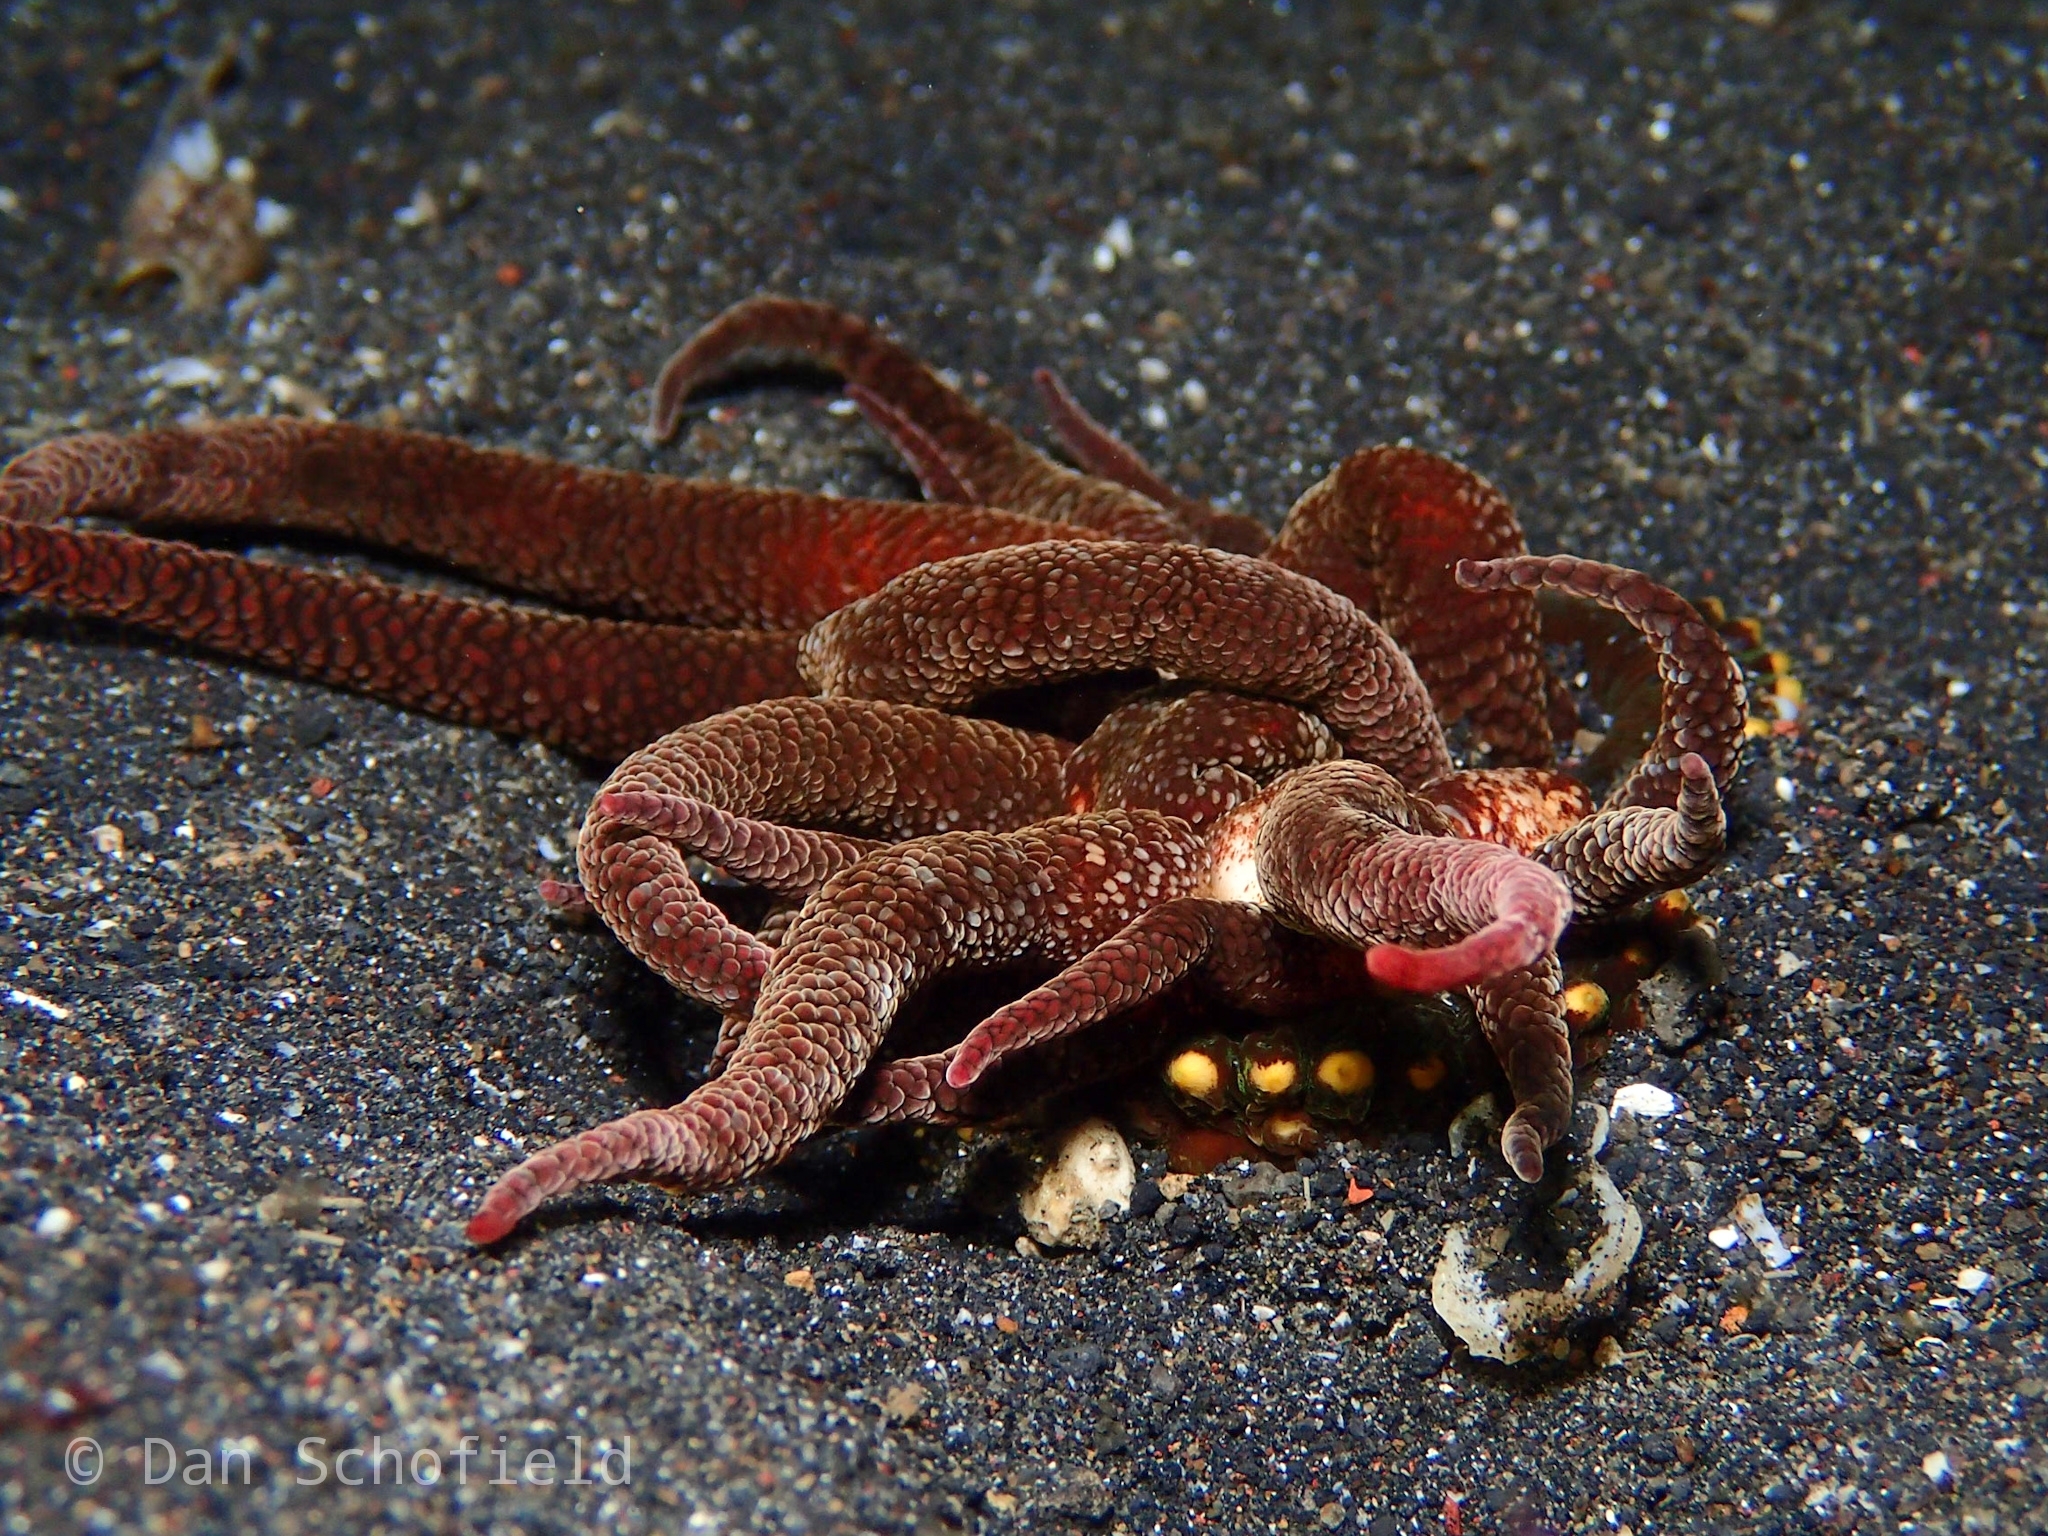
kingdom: Animalia
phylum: Cnidaria
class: Anthozoa
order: Actiniaria
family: Actiniidae
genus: Condylactis
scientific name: Condylactis aspera
